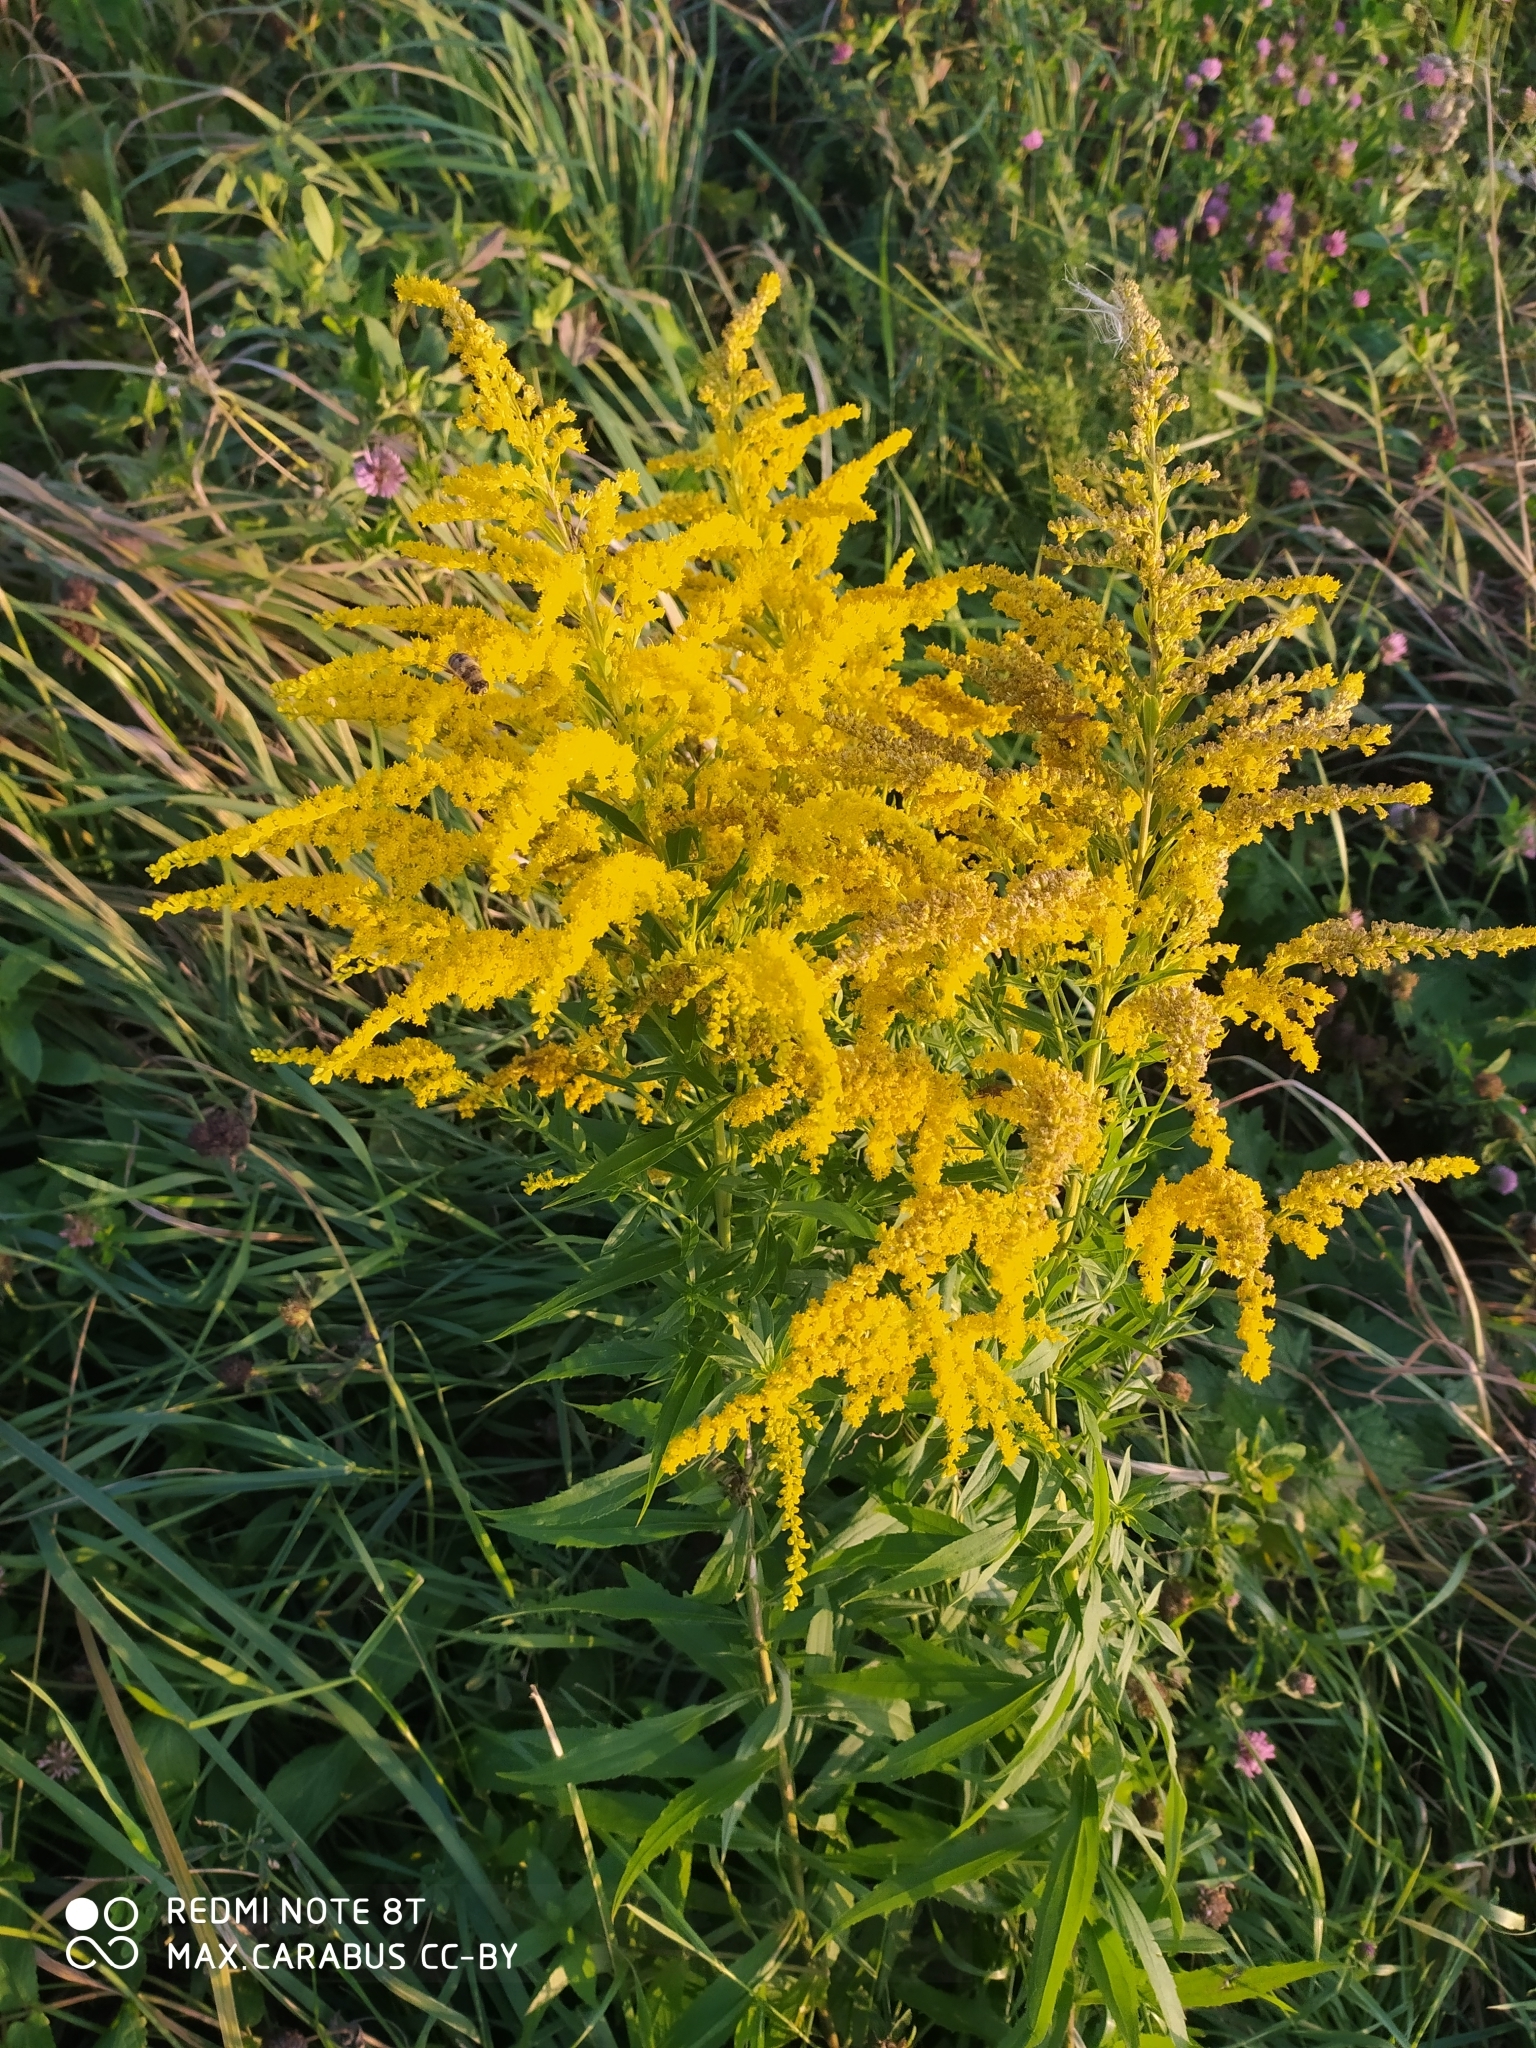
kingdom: Plantae
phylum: Tracheophyta
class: Magnoliopsida
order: Asterales
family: Asteraceae
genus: Solidago
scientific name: Solidago canadensis
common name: Canada goldenrod
